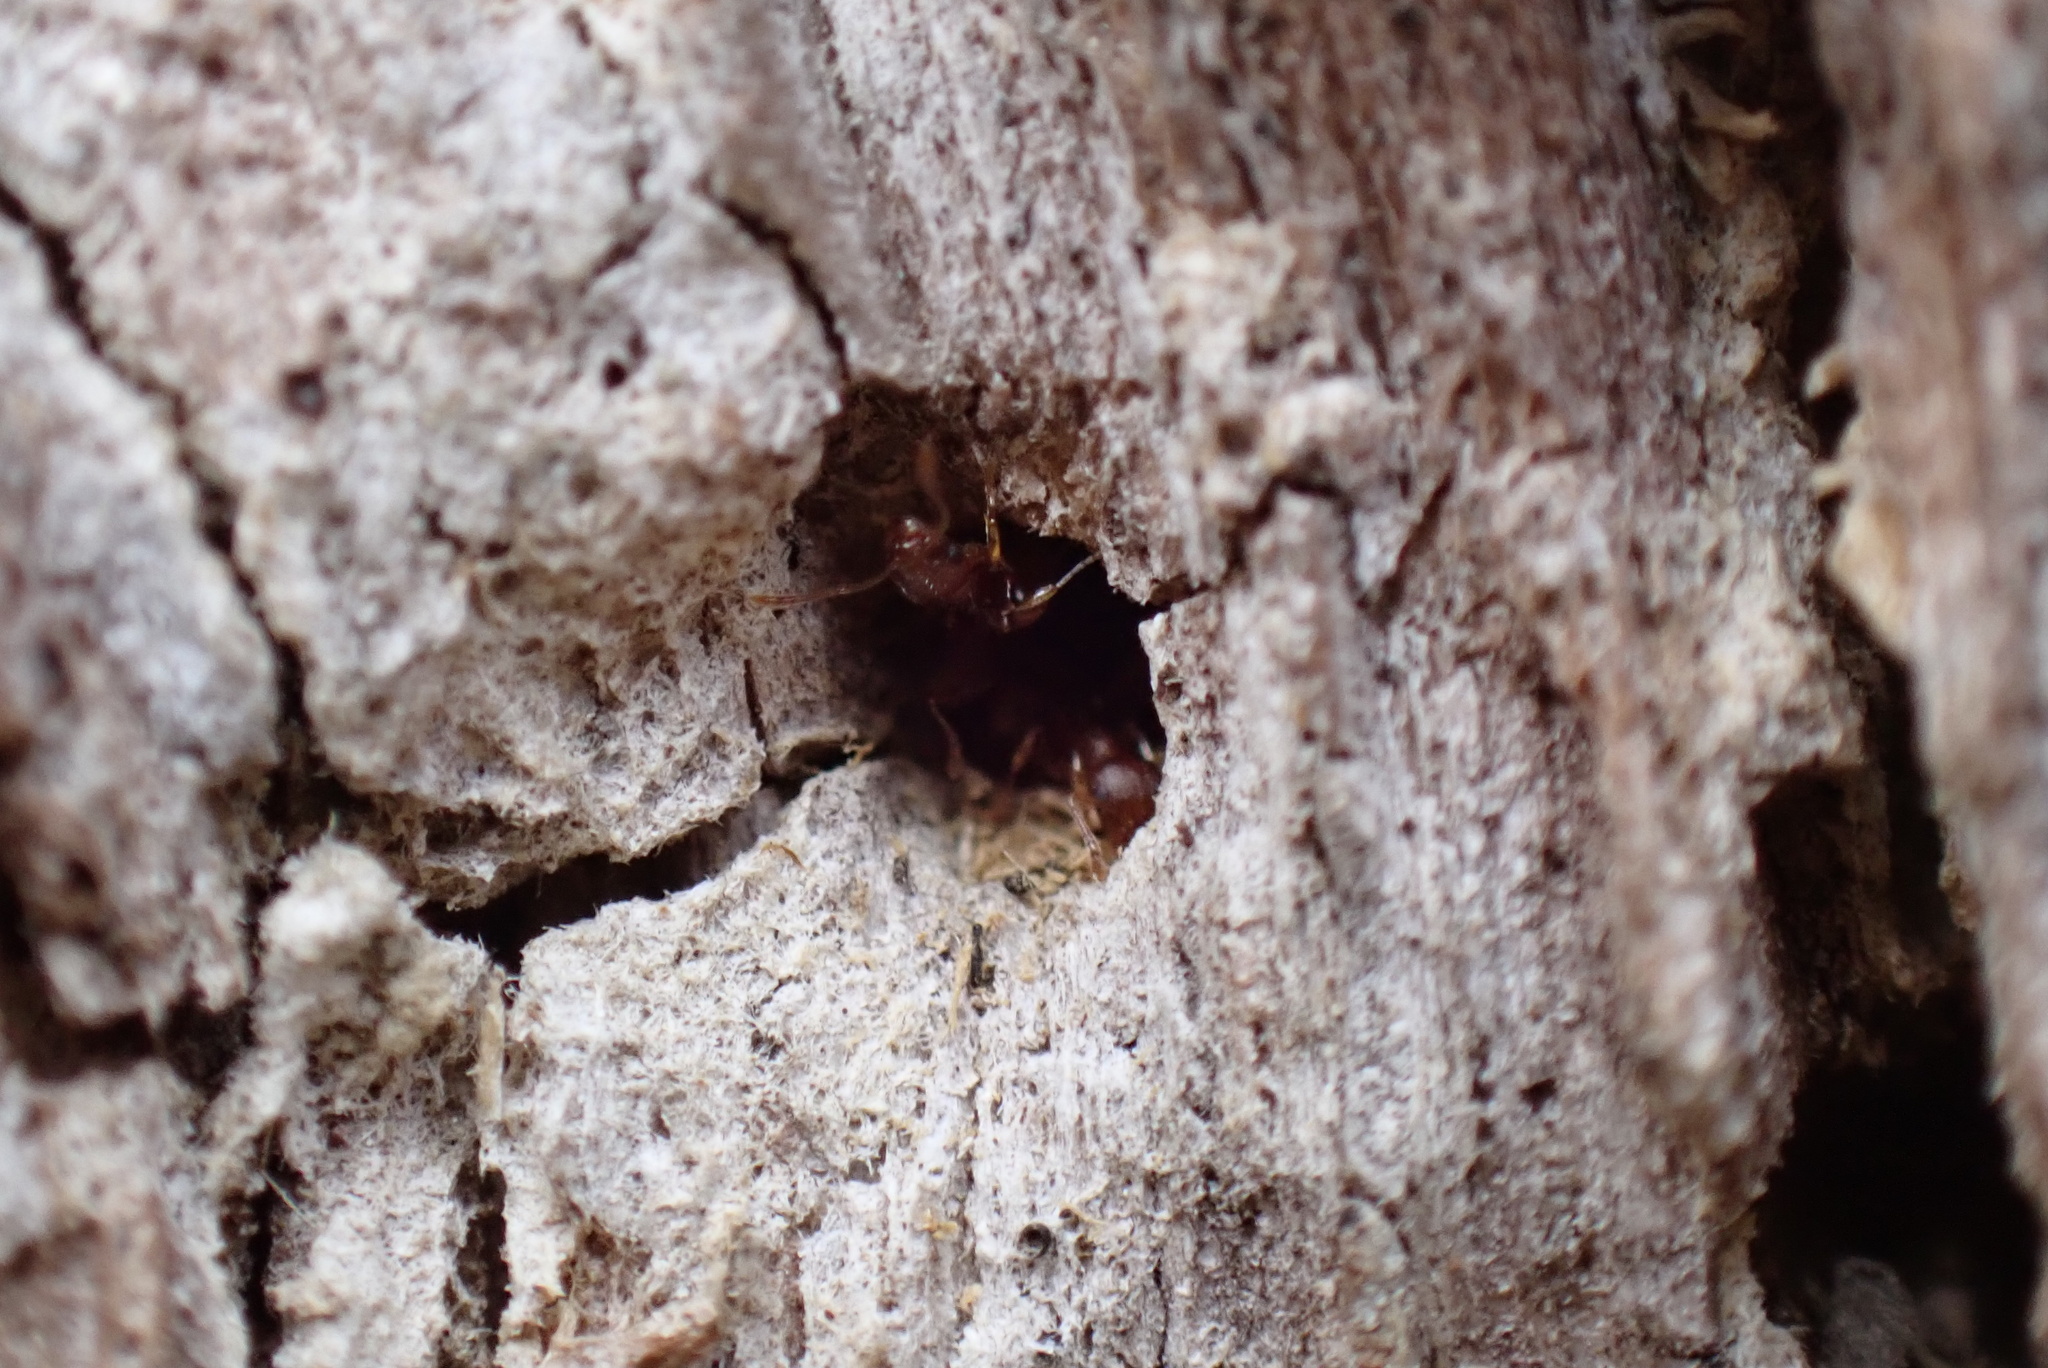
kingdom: Animalia
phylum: Arthropoda
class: Insecta
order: Hymenoptera
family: Formicidae
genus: Temnothorax
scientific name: Temnothorax curvispinosus
